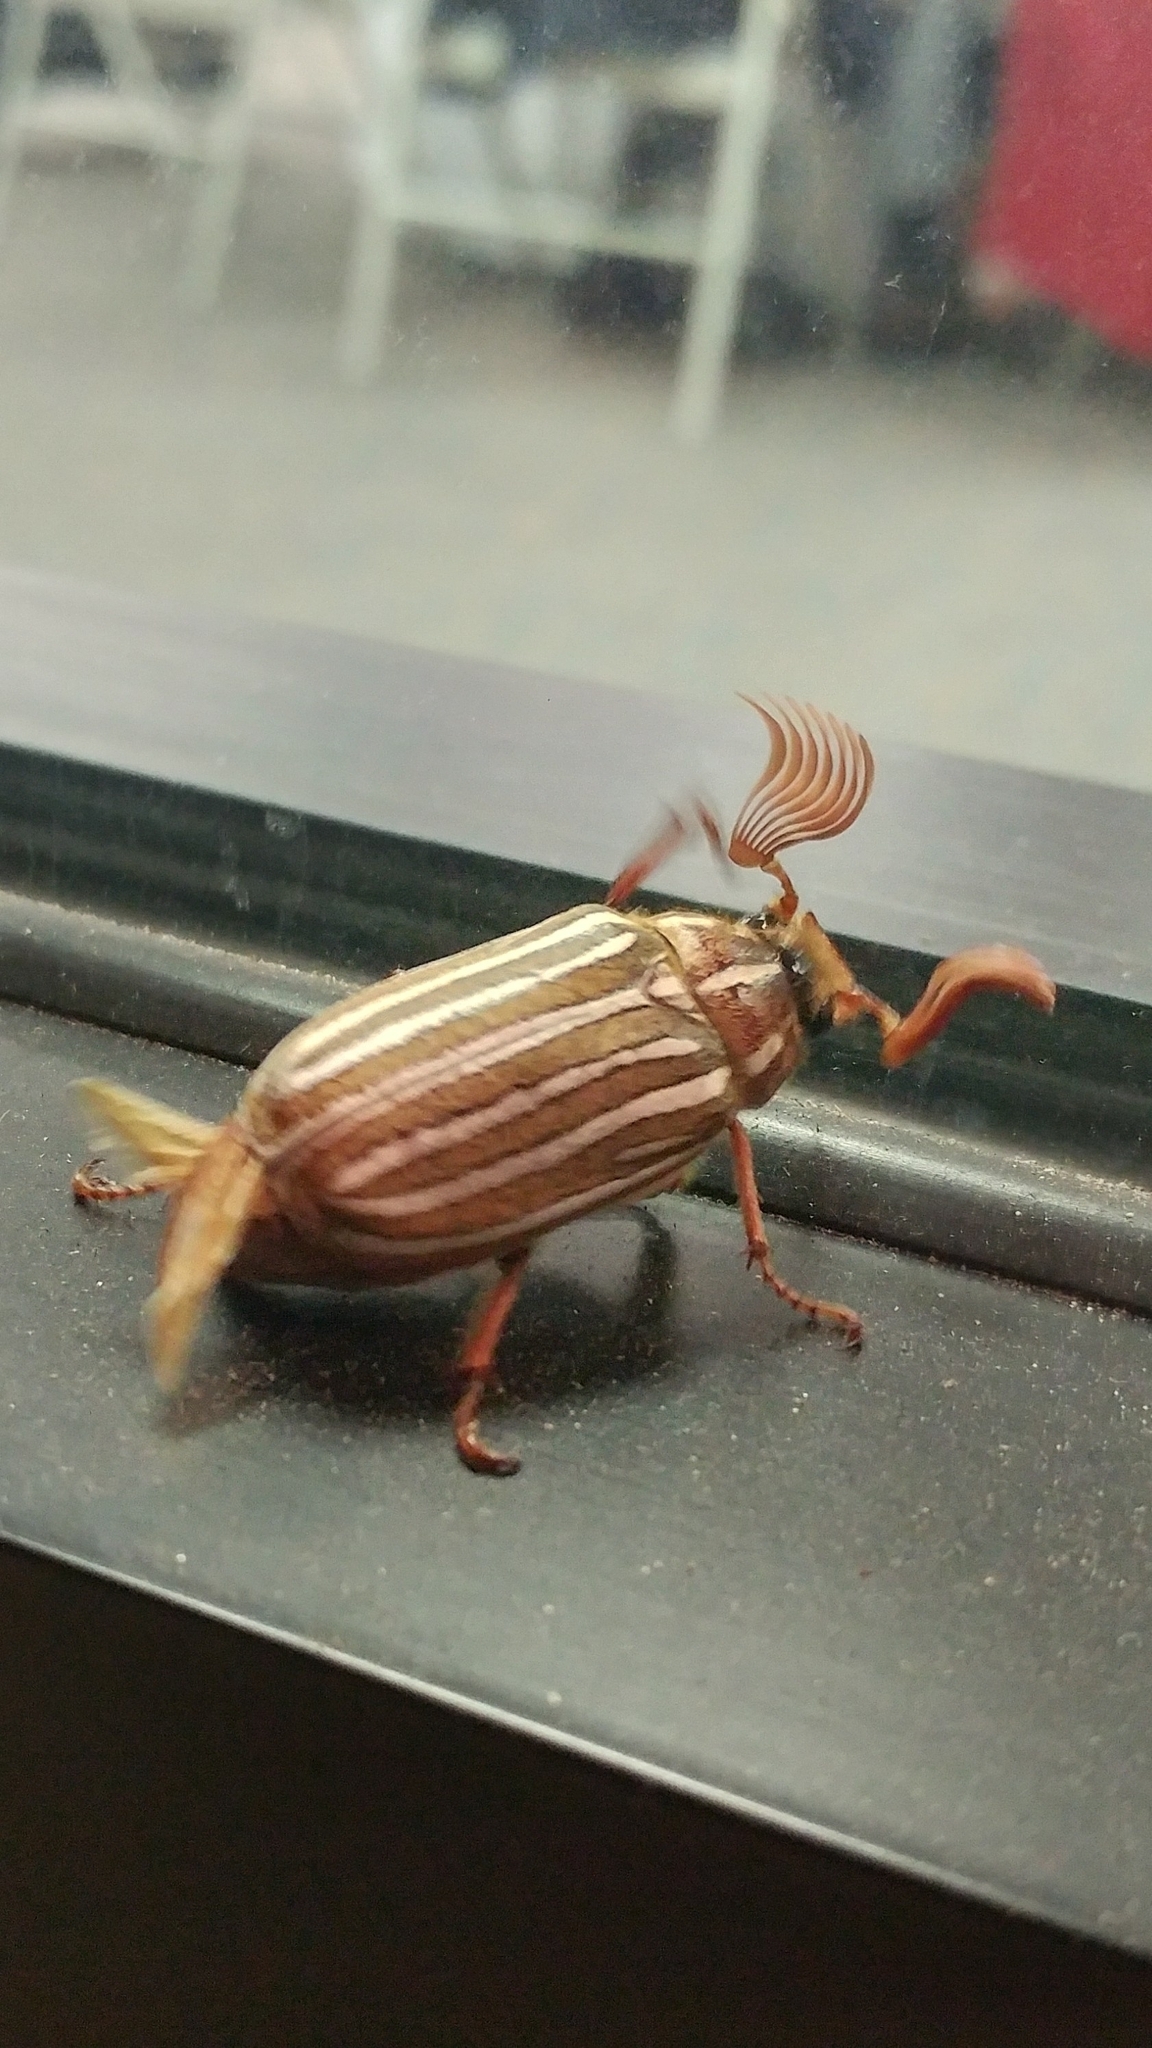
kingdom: Animalia
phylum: Arthropoda
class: Insecta
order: Coleoptera
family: Scarabaeidae
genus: Polyphylla
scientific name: Polyphylla decemlineata
